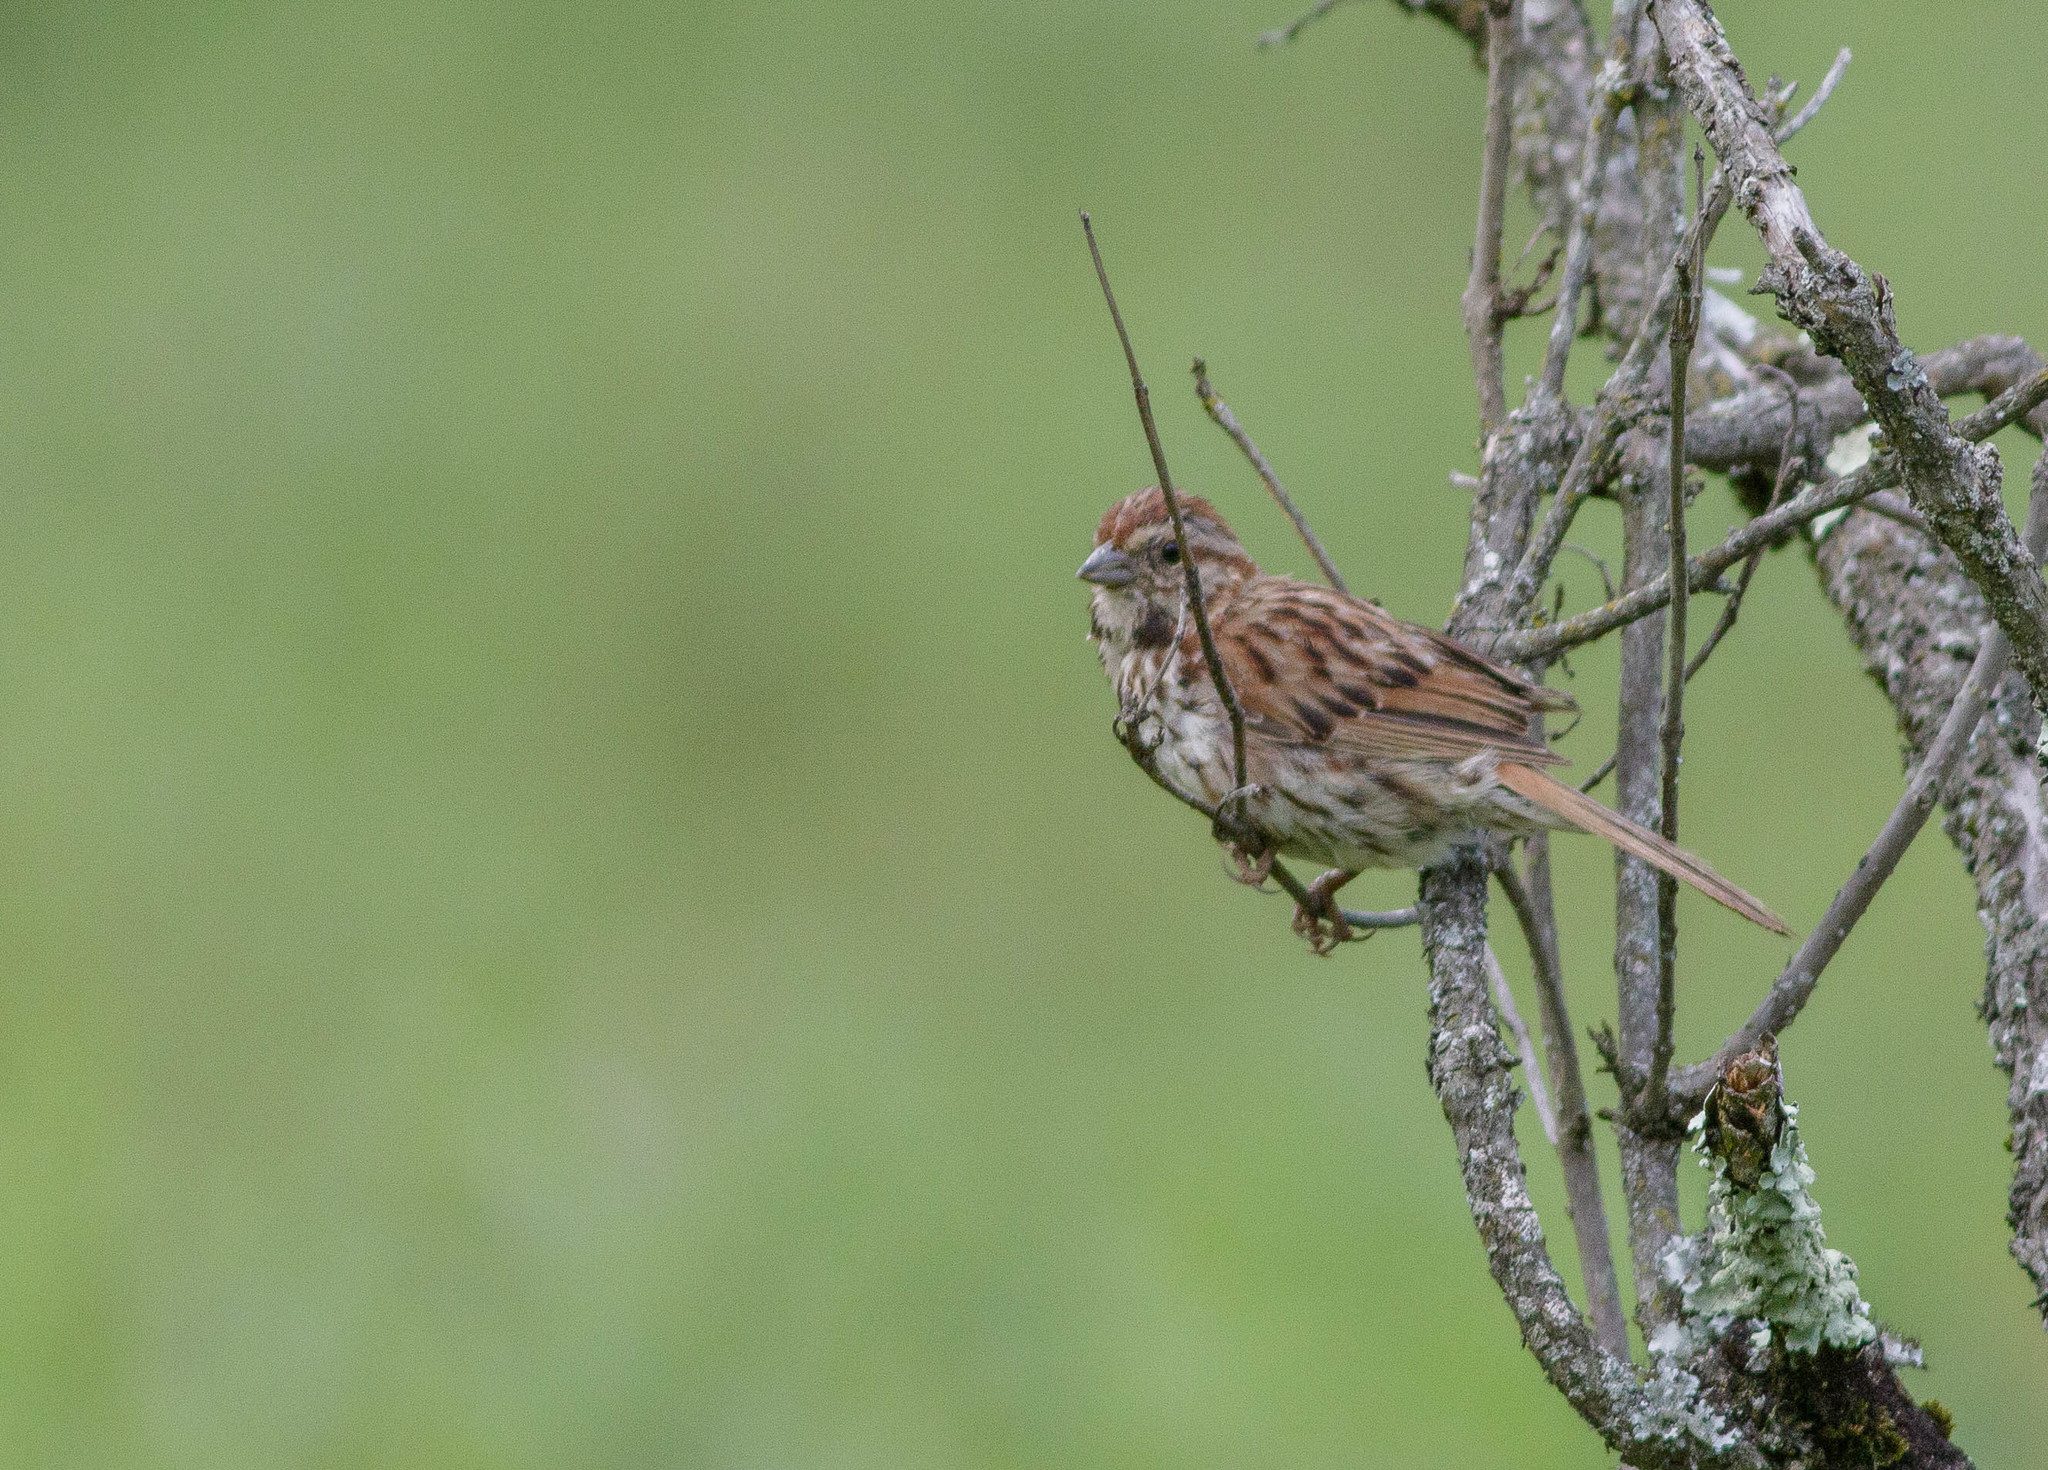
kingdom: Animalia
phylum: Chordata
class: Aves
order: Passeriformes
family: Passerellidae
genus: Melospiza
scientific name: Melospiza melodia
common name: Song sparrow
